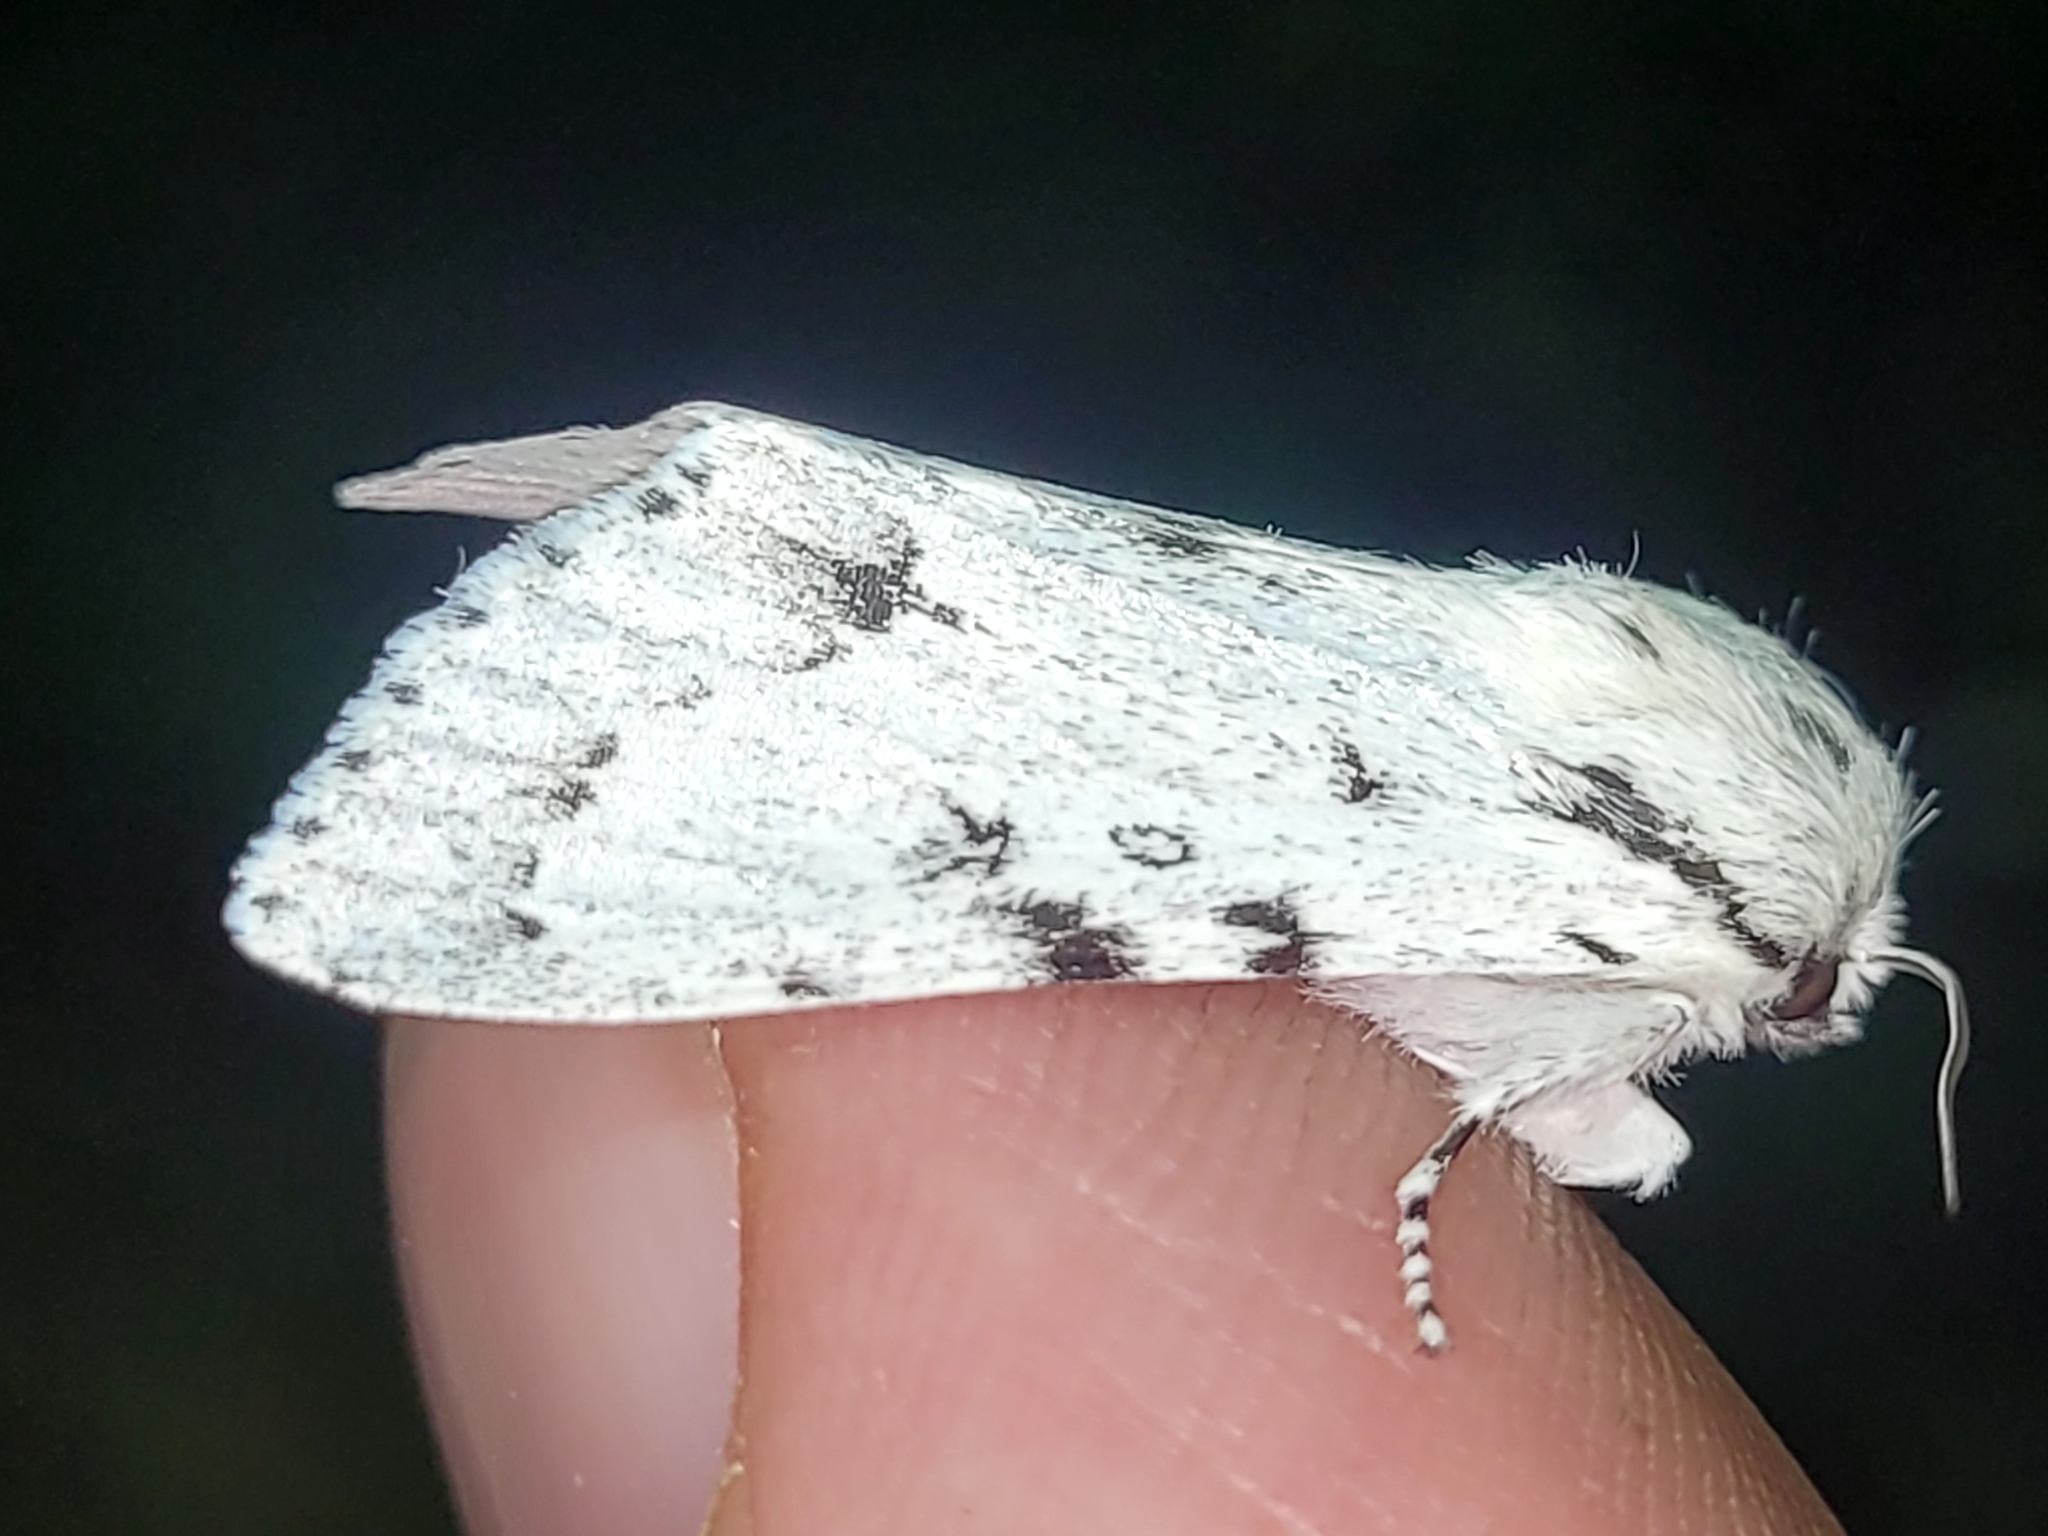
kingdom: Animalia
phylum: Arthropoda
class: Insecta
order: Lepidoptera
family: Noctuidae
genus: Acronicta
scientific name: Acronicta lepusculina
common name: Cottonwood dagger
